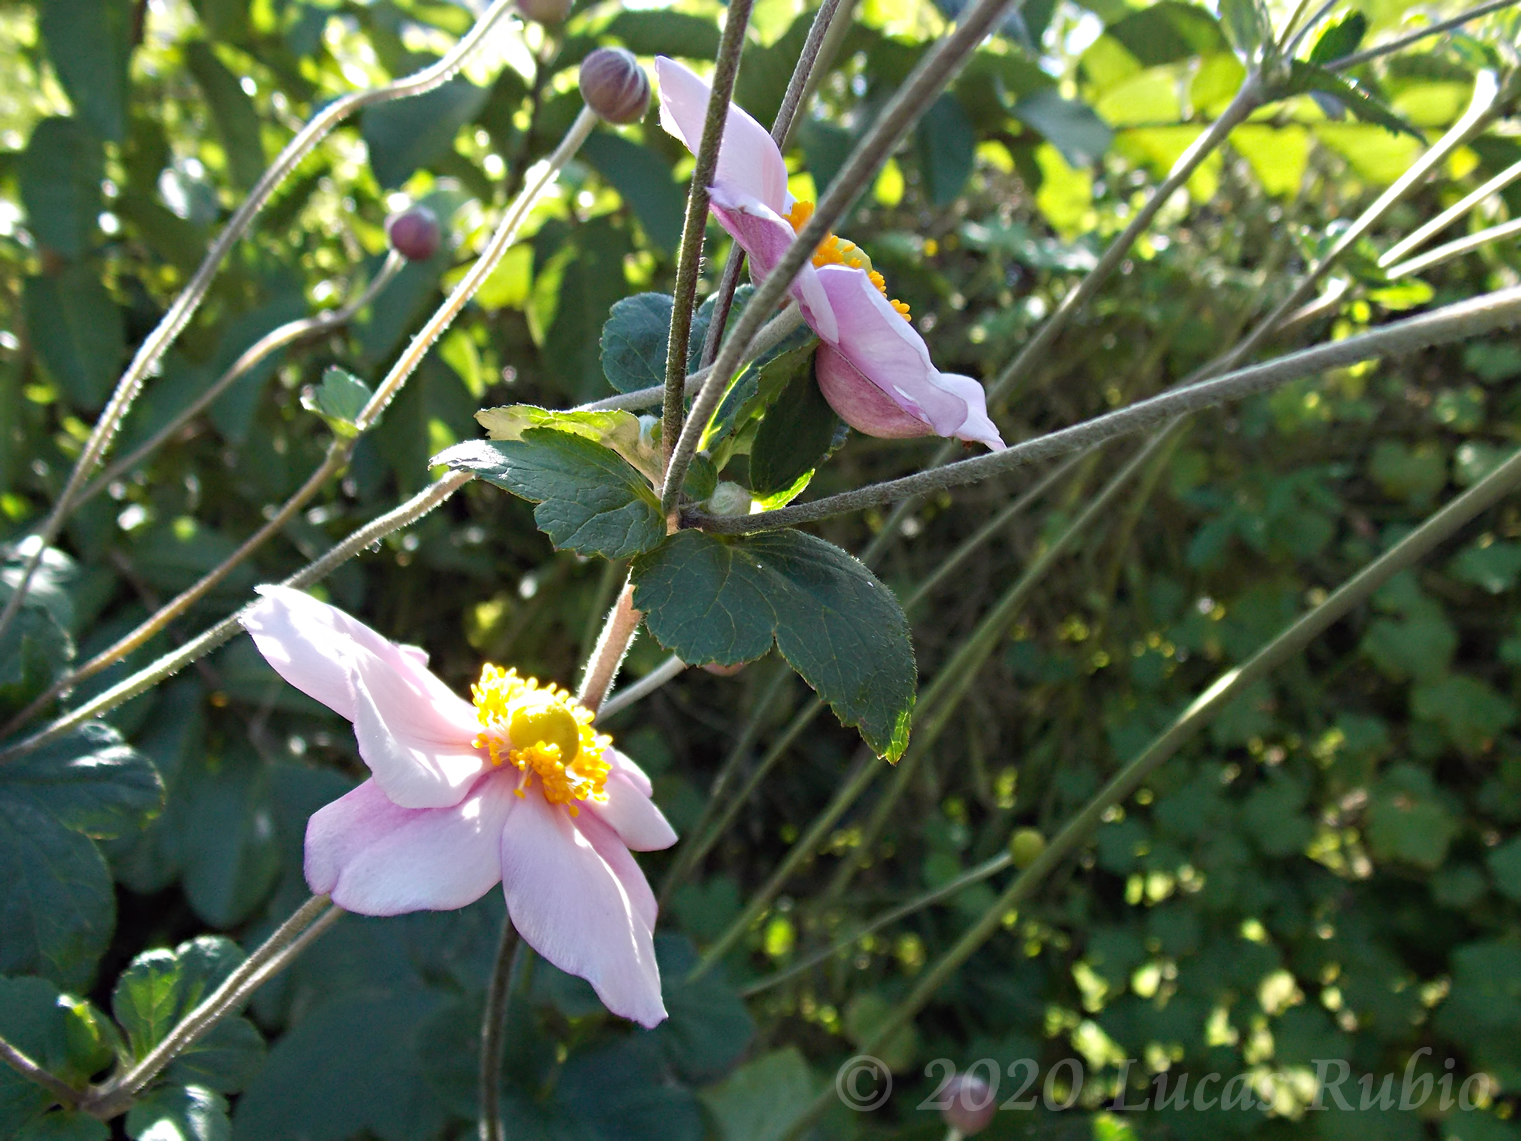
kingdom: Plantae
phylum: Tracheophyta
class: Magnoliopsida
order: Ranunculales
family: Ranunculaceae
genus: Eriocapitella
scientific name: Eriocapitella hupehensis
